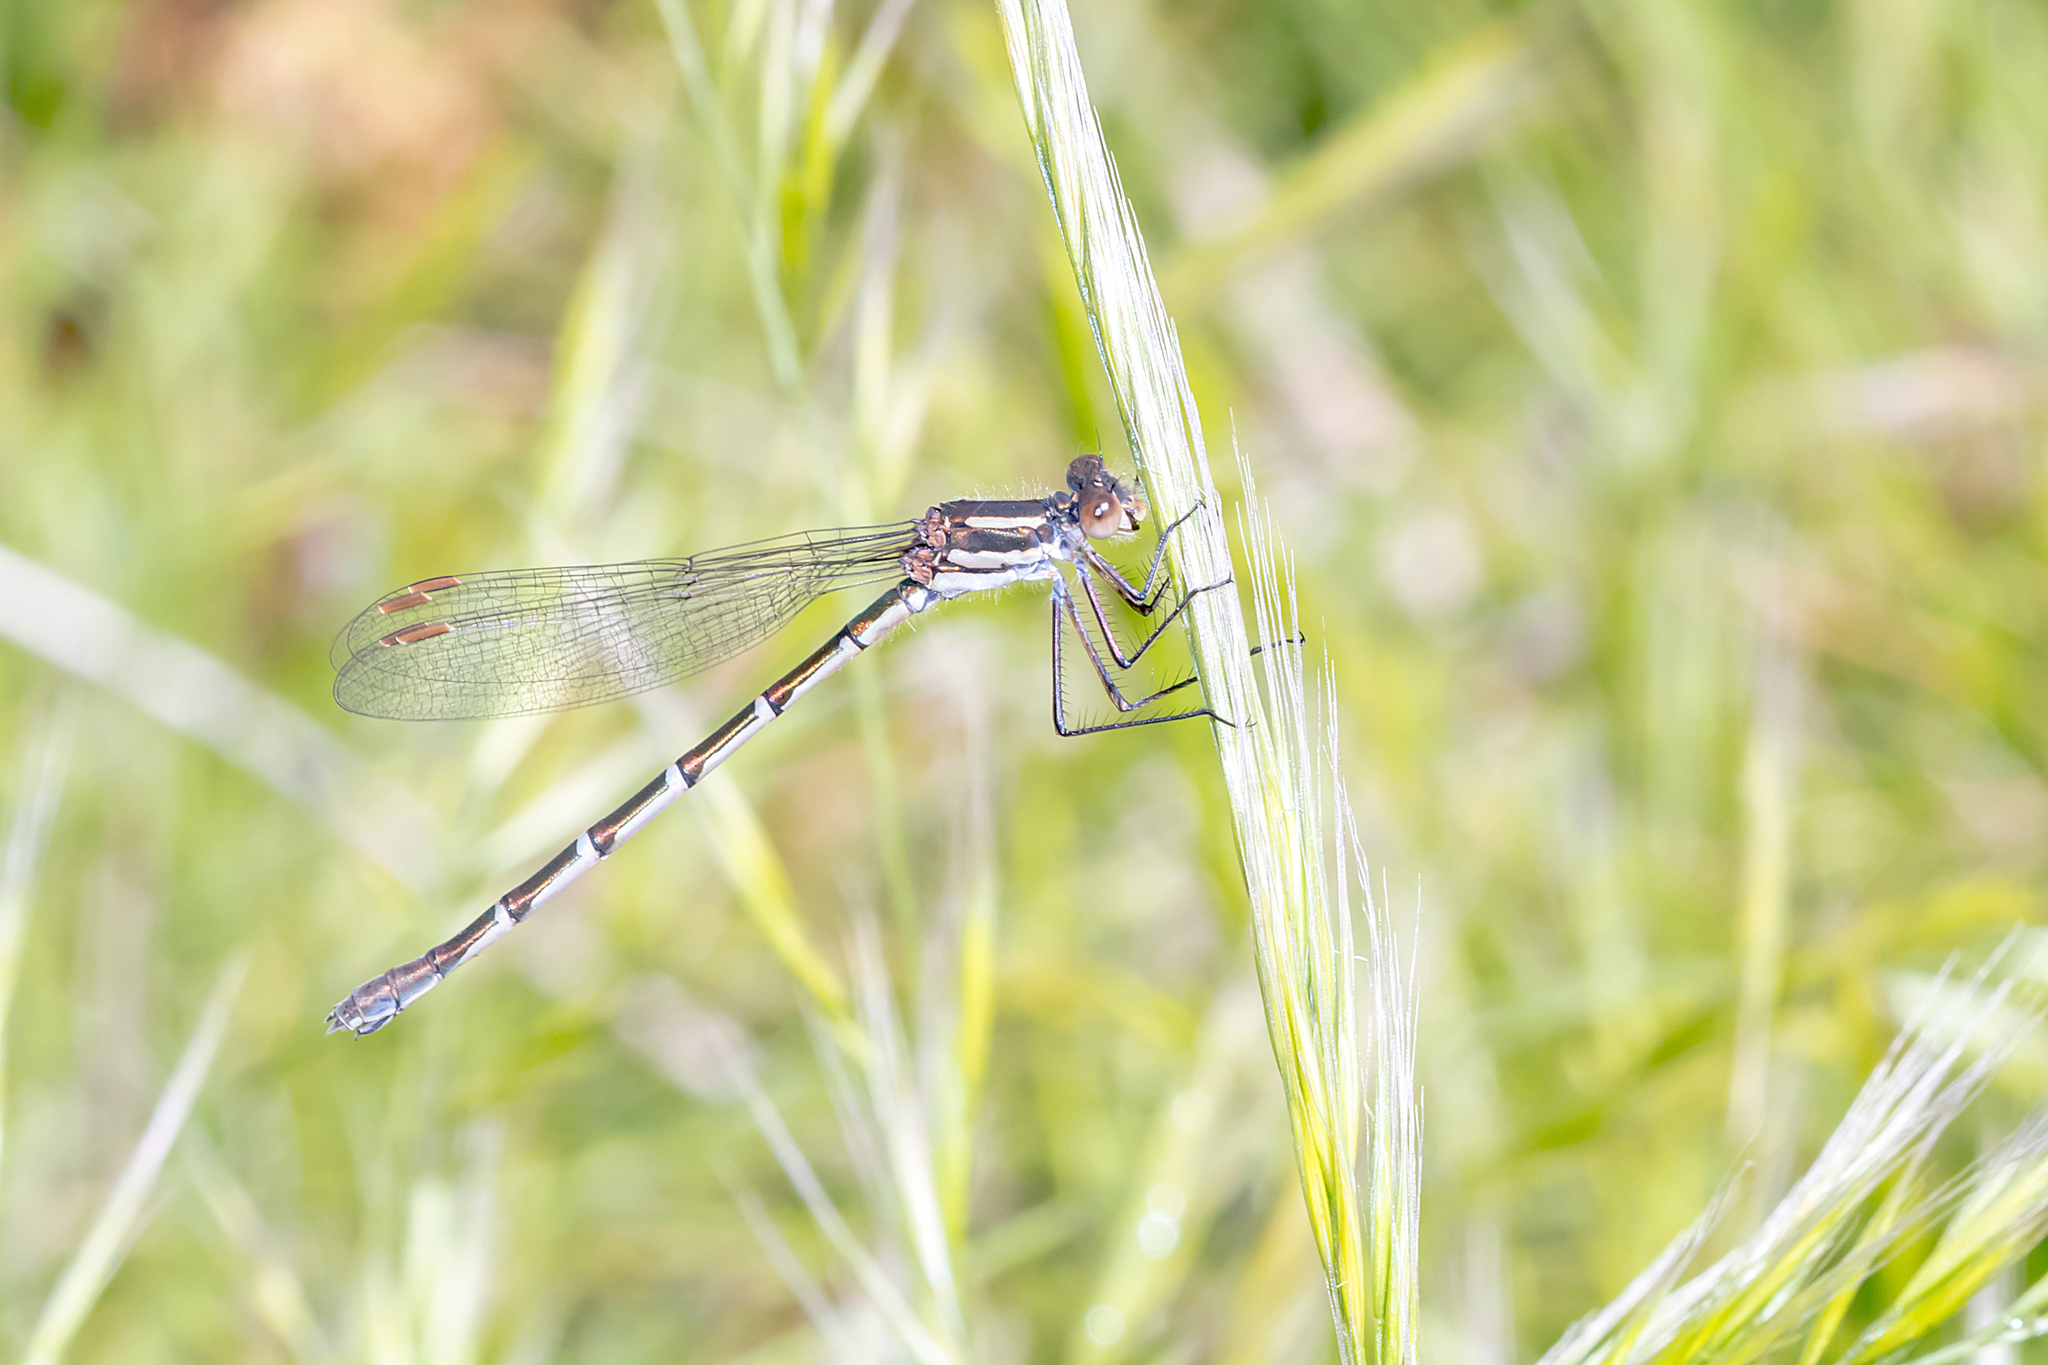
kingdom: Animalia
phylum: Arthropoda
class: Insecta
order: Odonata
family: Lestidae
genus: Austrolestes
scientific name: Austrolestes annulosus
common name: Blue ringtail
